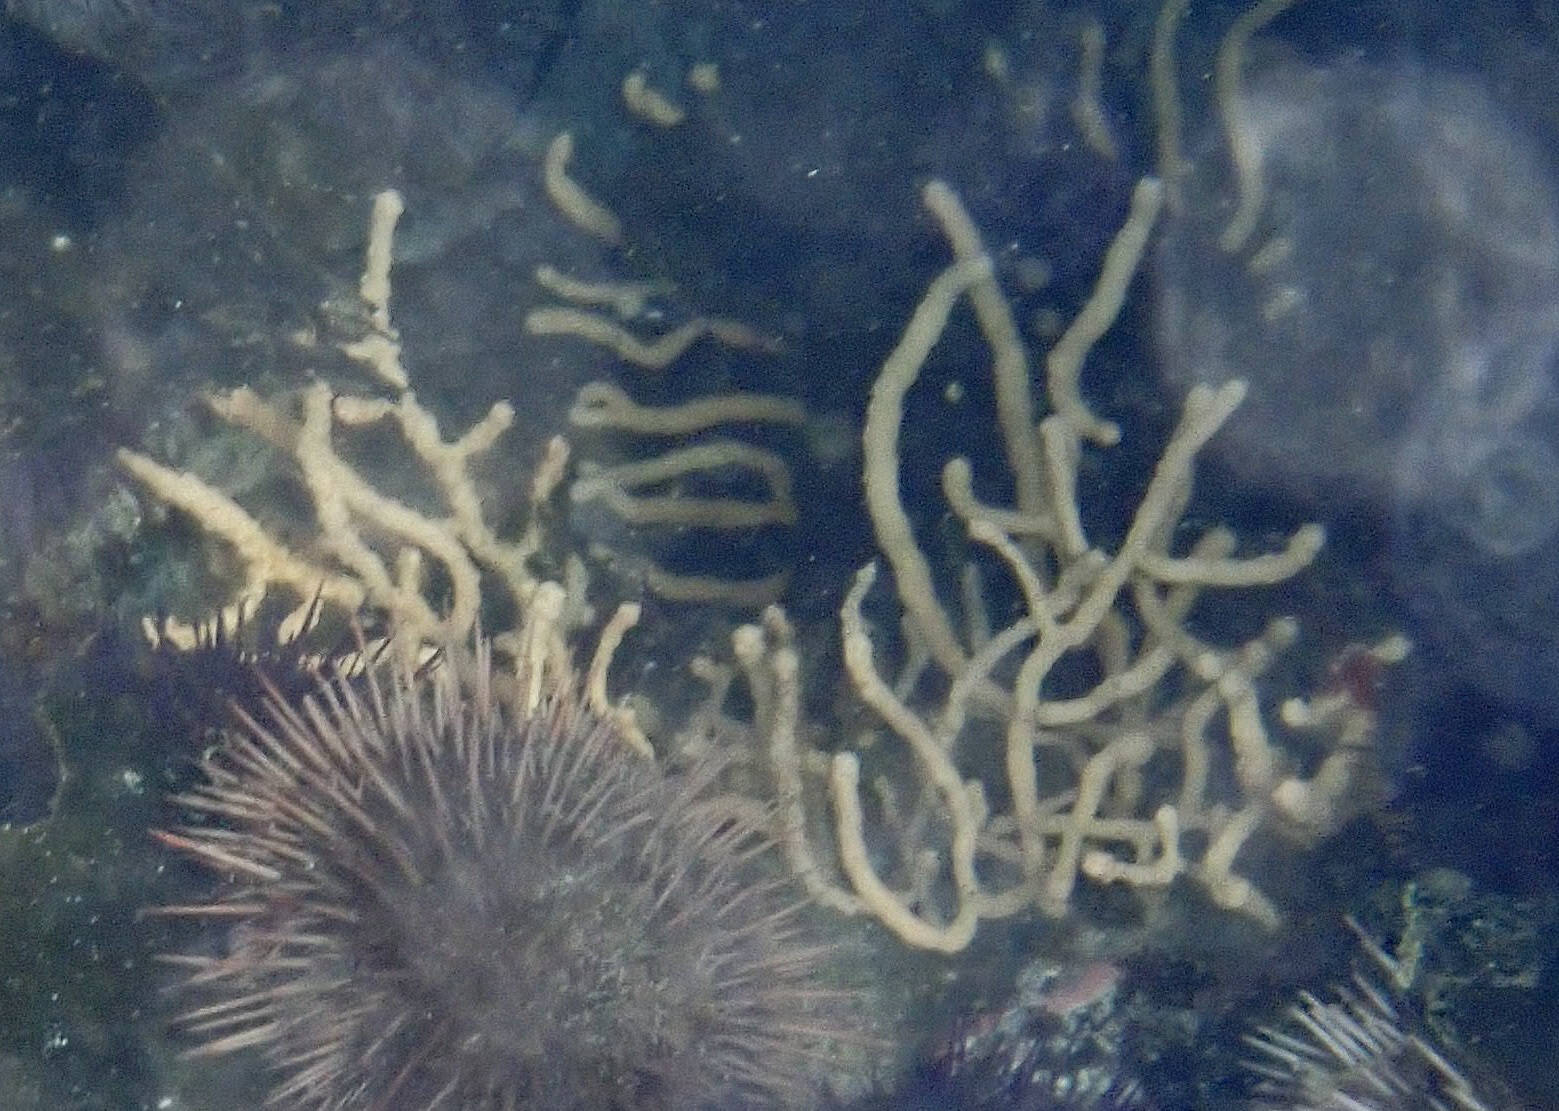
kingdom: Animalia
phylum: Cnidaria
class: Anthozoa
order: Malacalcyonacea
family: Eunicellidae
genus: Eunicella
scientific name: Eunicella microthela
